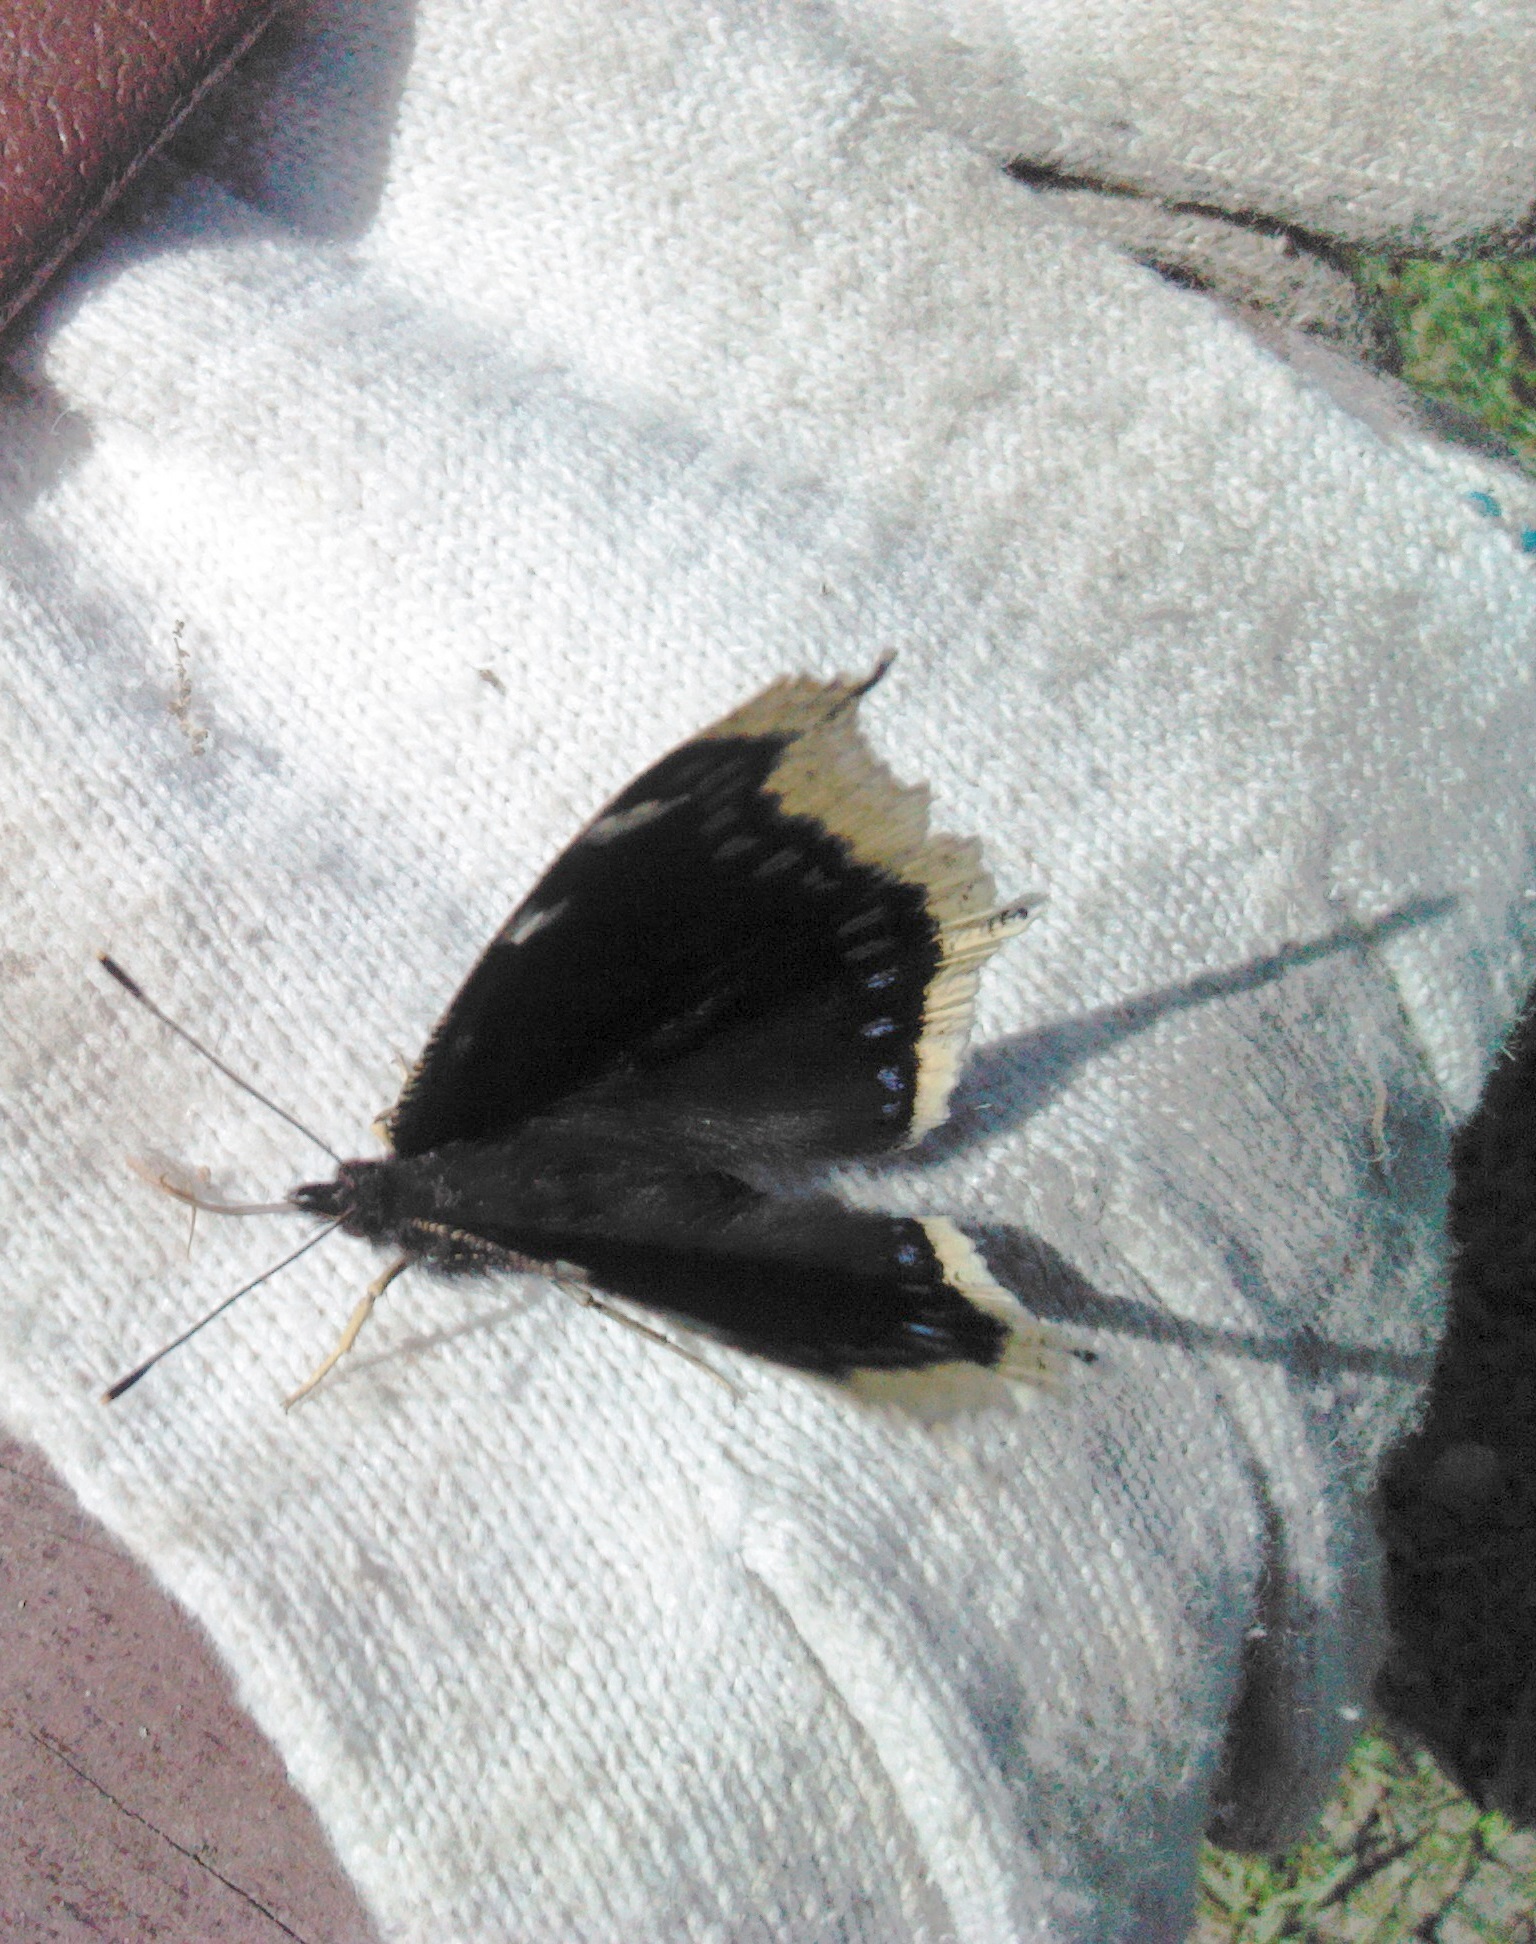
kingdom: Animalia
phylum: Arthropoda
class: Insecta
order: Lepidoptera
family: Nymphalidae
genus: Nymphalis
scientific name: Nymphalis antiopa
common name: Camberwell beauty
